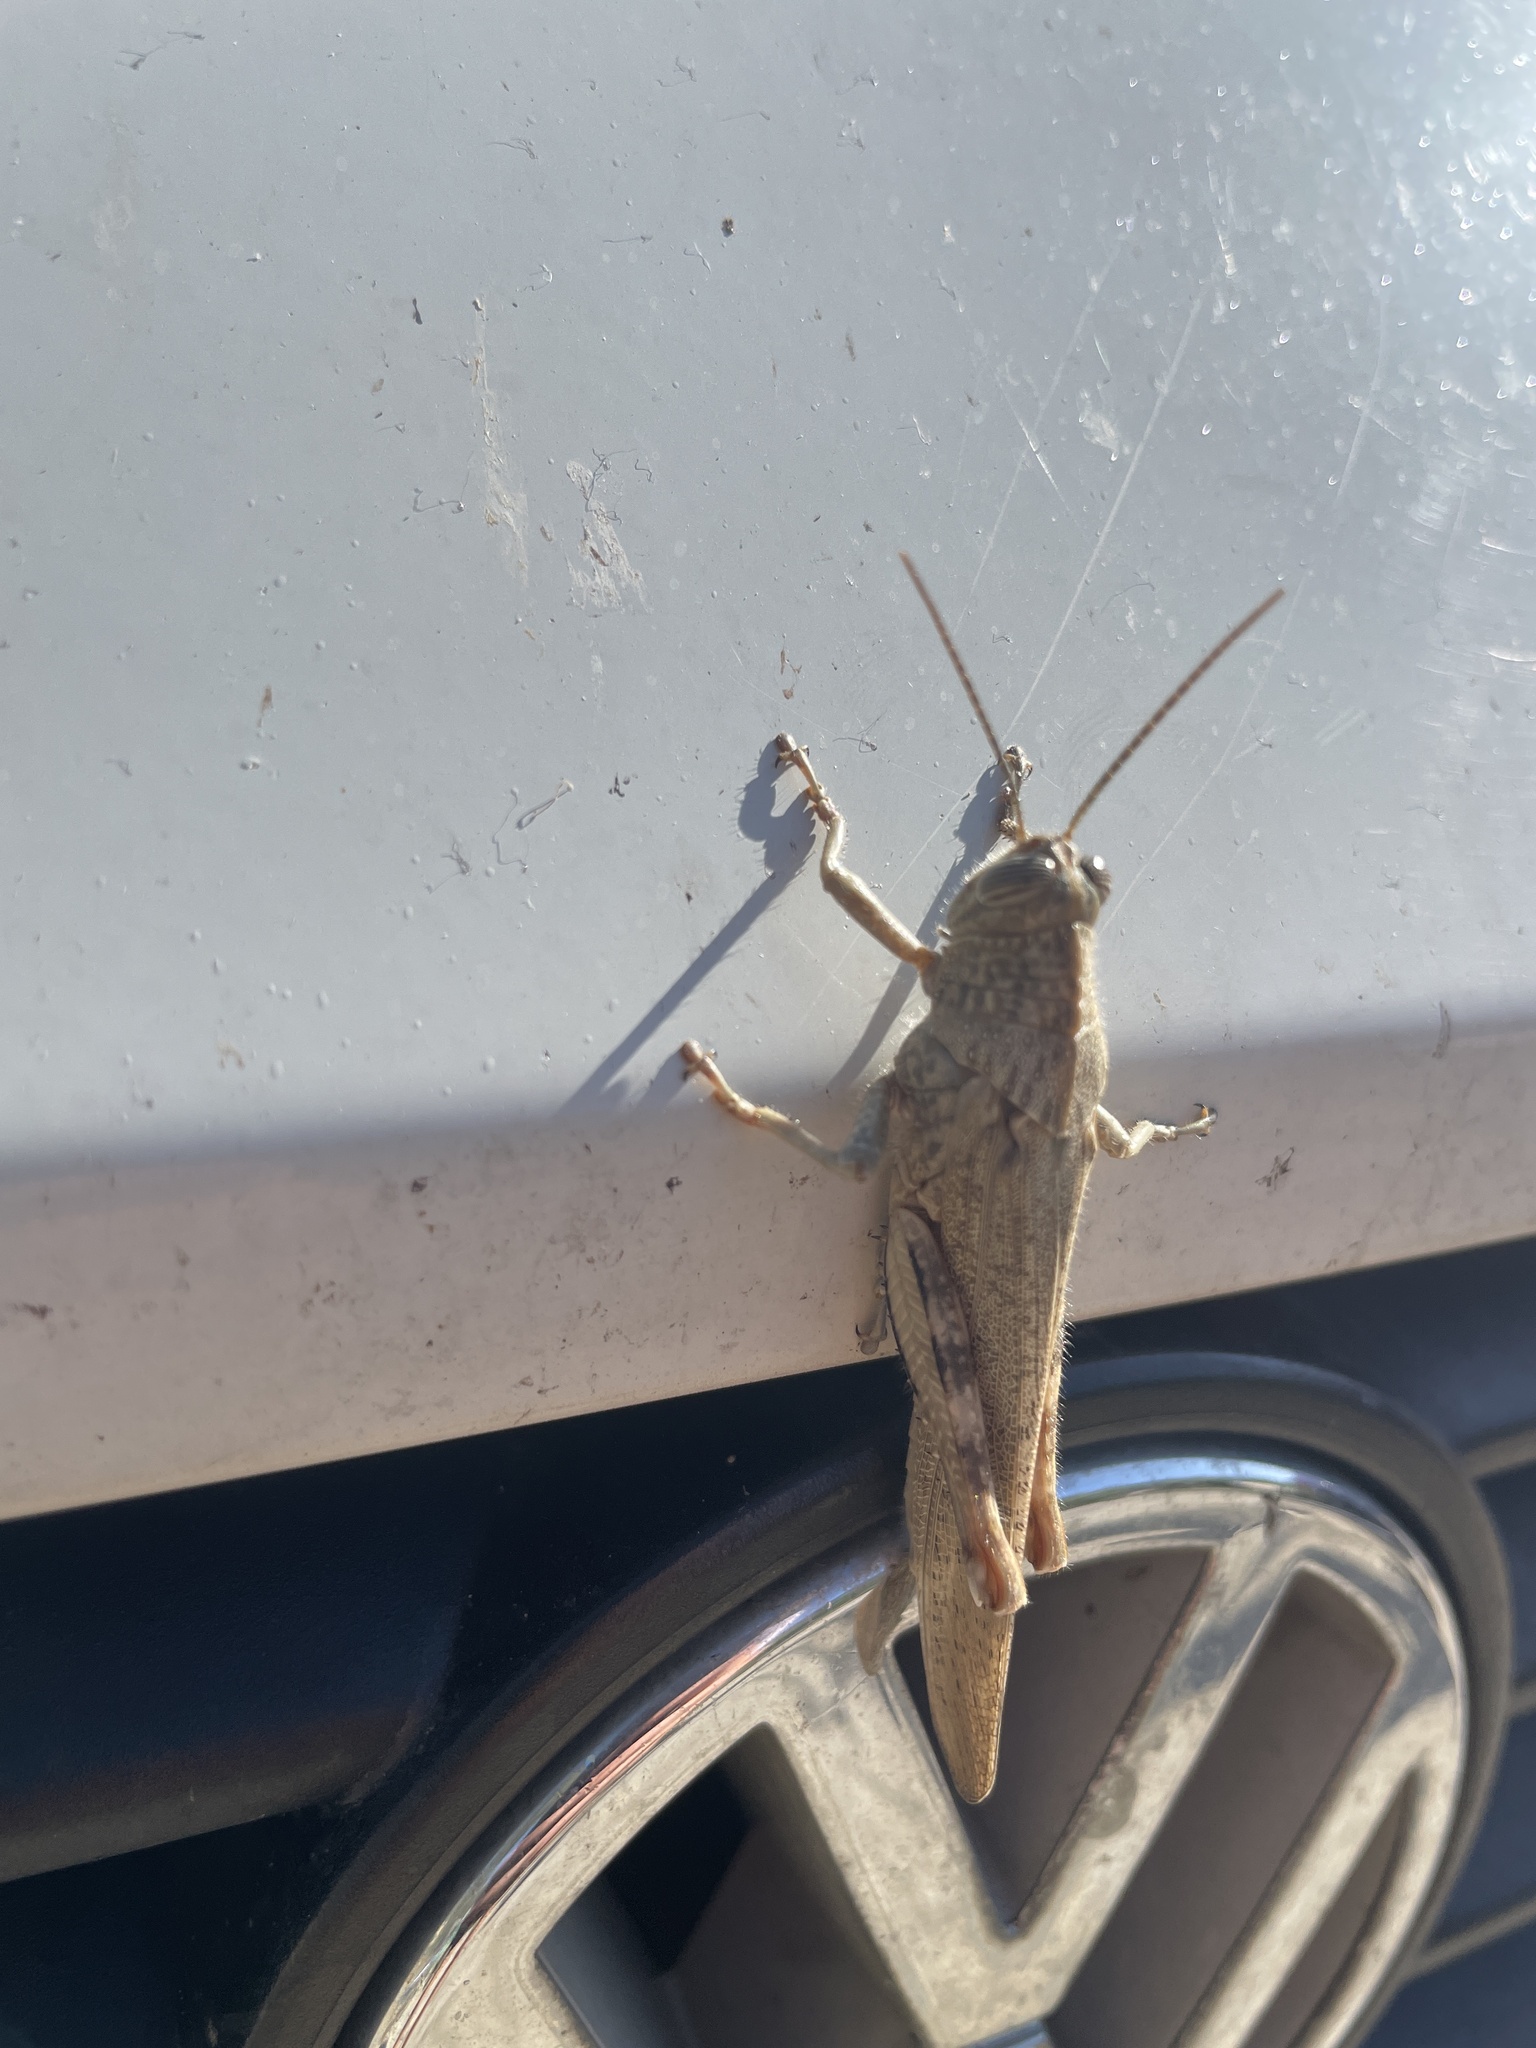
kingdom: Animalia
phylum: Arthropoda
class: Insecta
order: Orthoptera
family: Acrididae
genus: Anacridium
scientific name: Anacridium aegyptium
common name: Egyptian grasshopper
